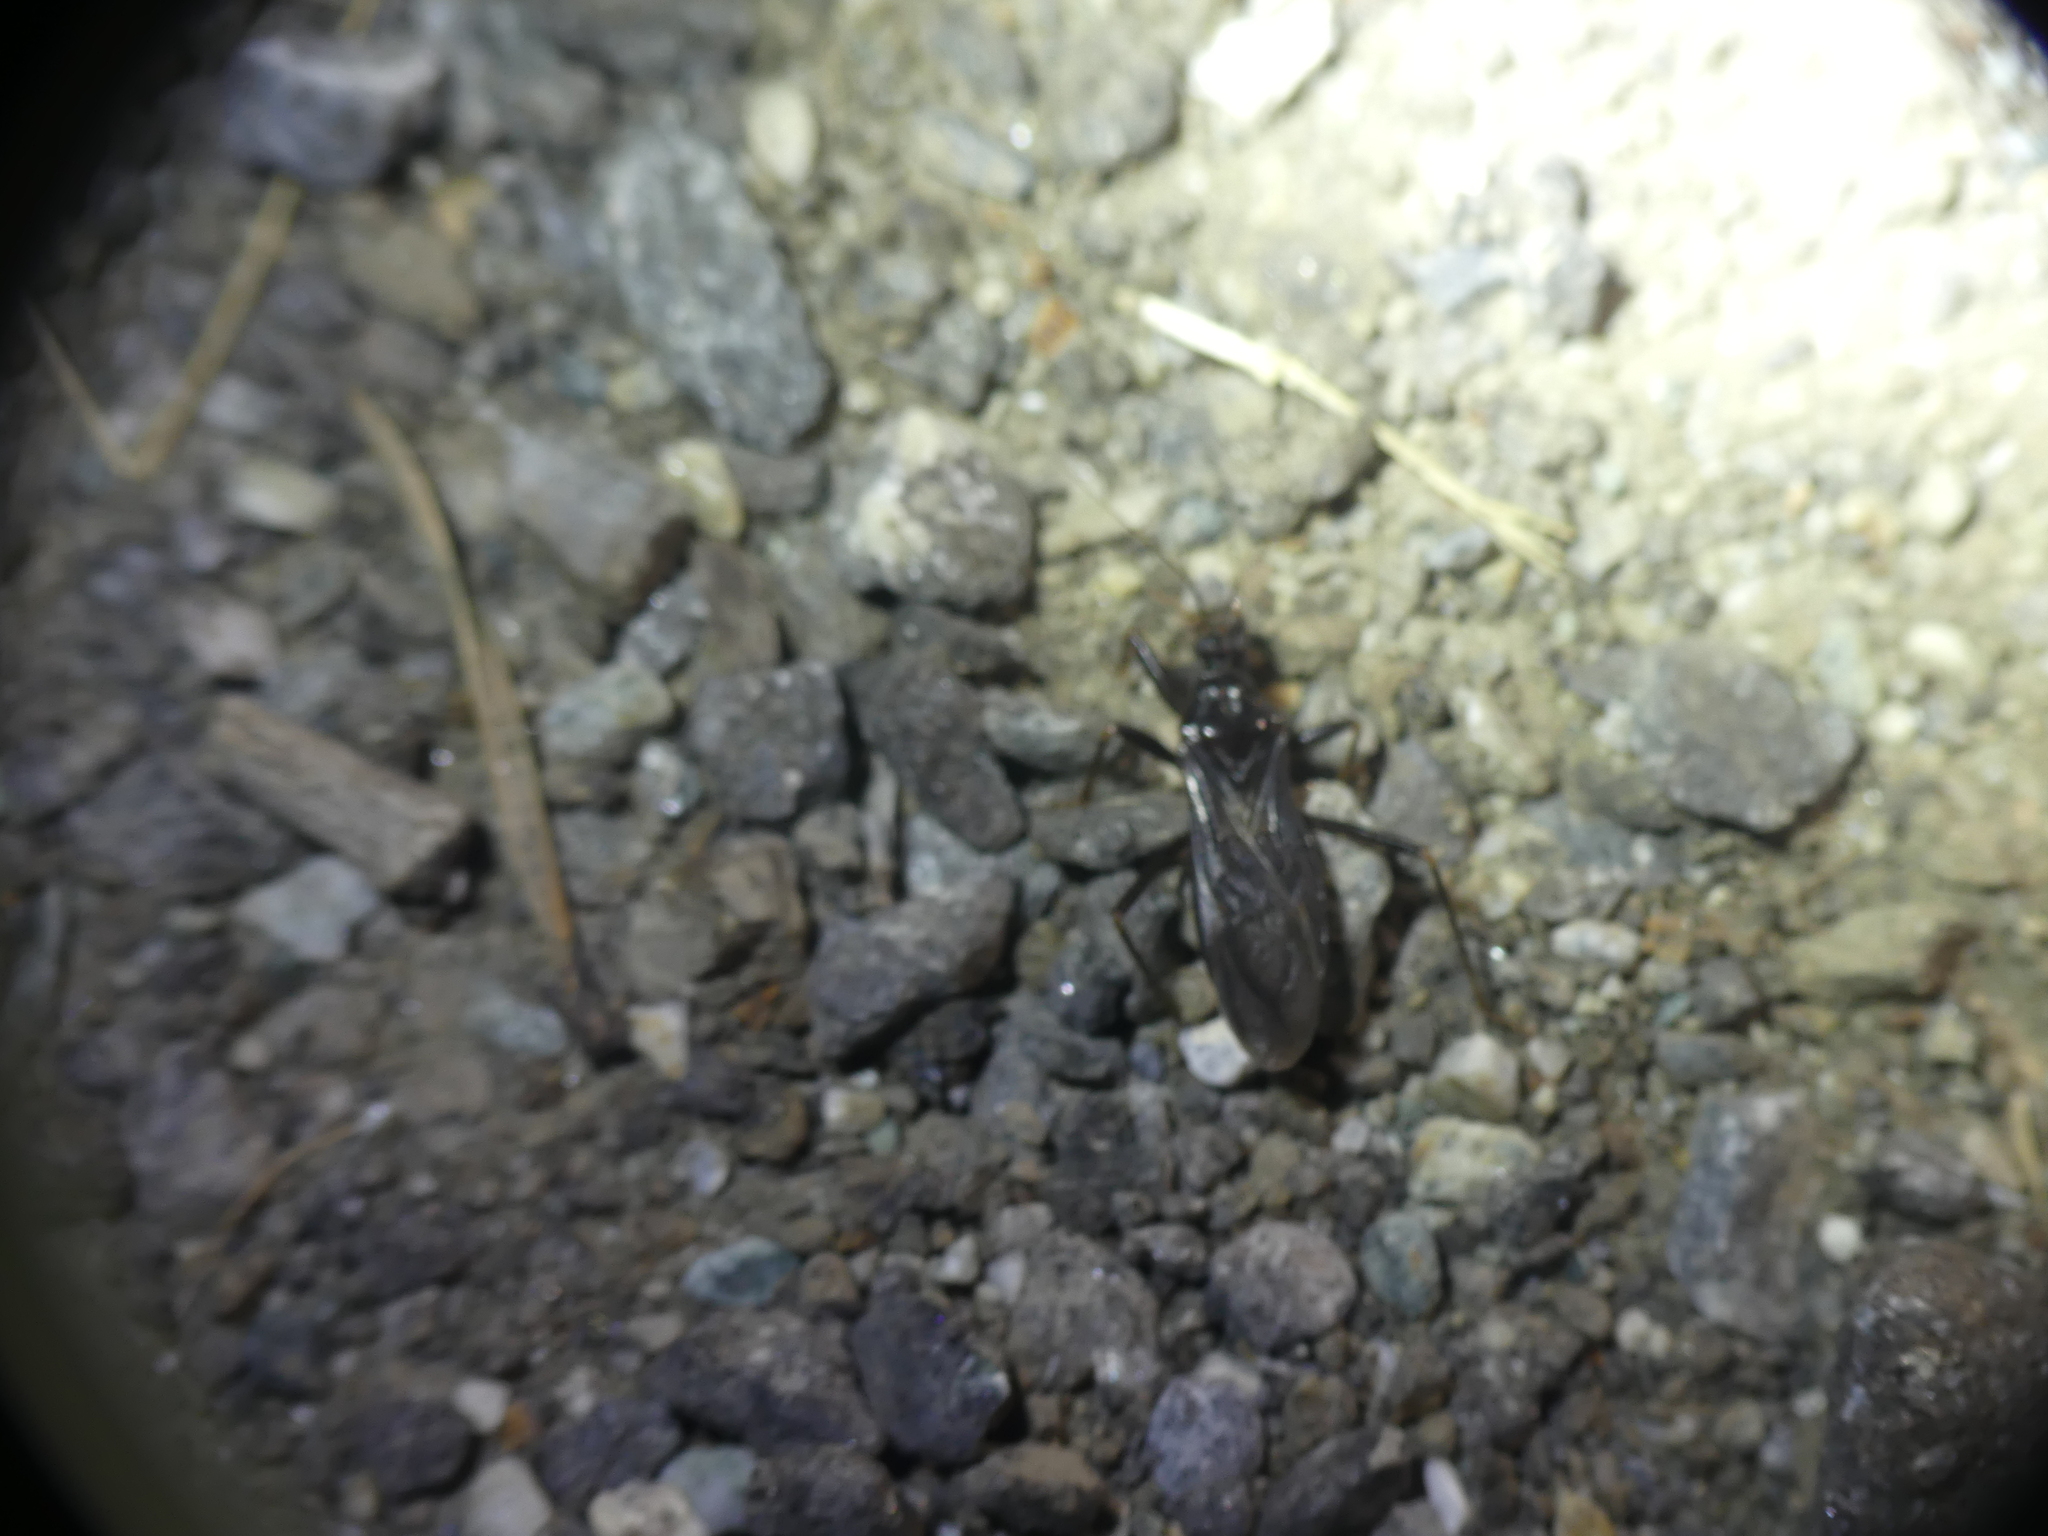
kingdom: Animalia
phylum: Arthropoda
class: Insecta
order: Hemiptera
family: Reduviidae
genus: Reduvius
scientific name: Reduvius personatus
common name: Masked hunter
